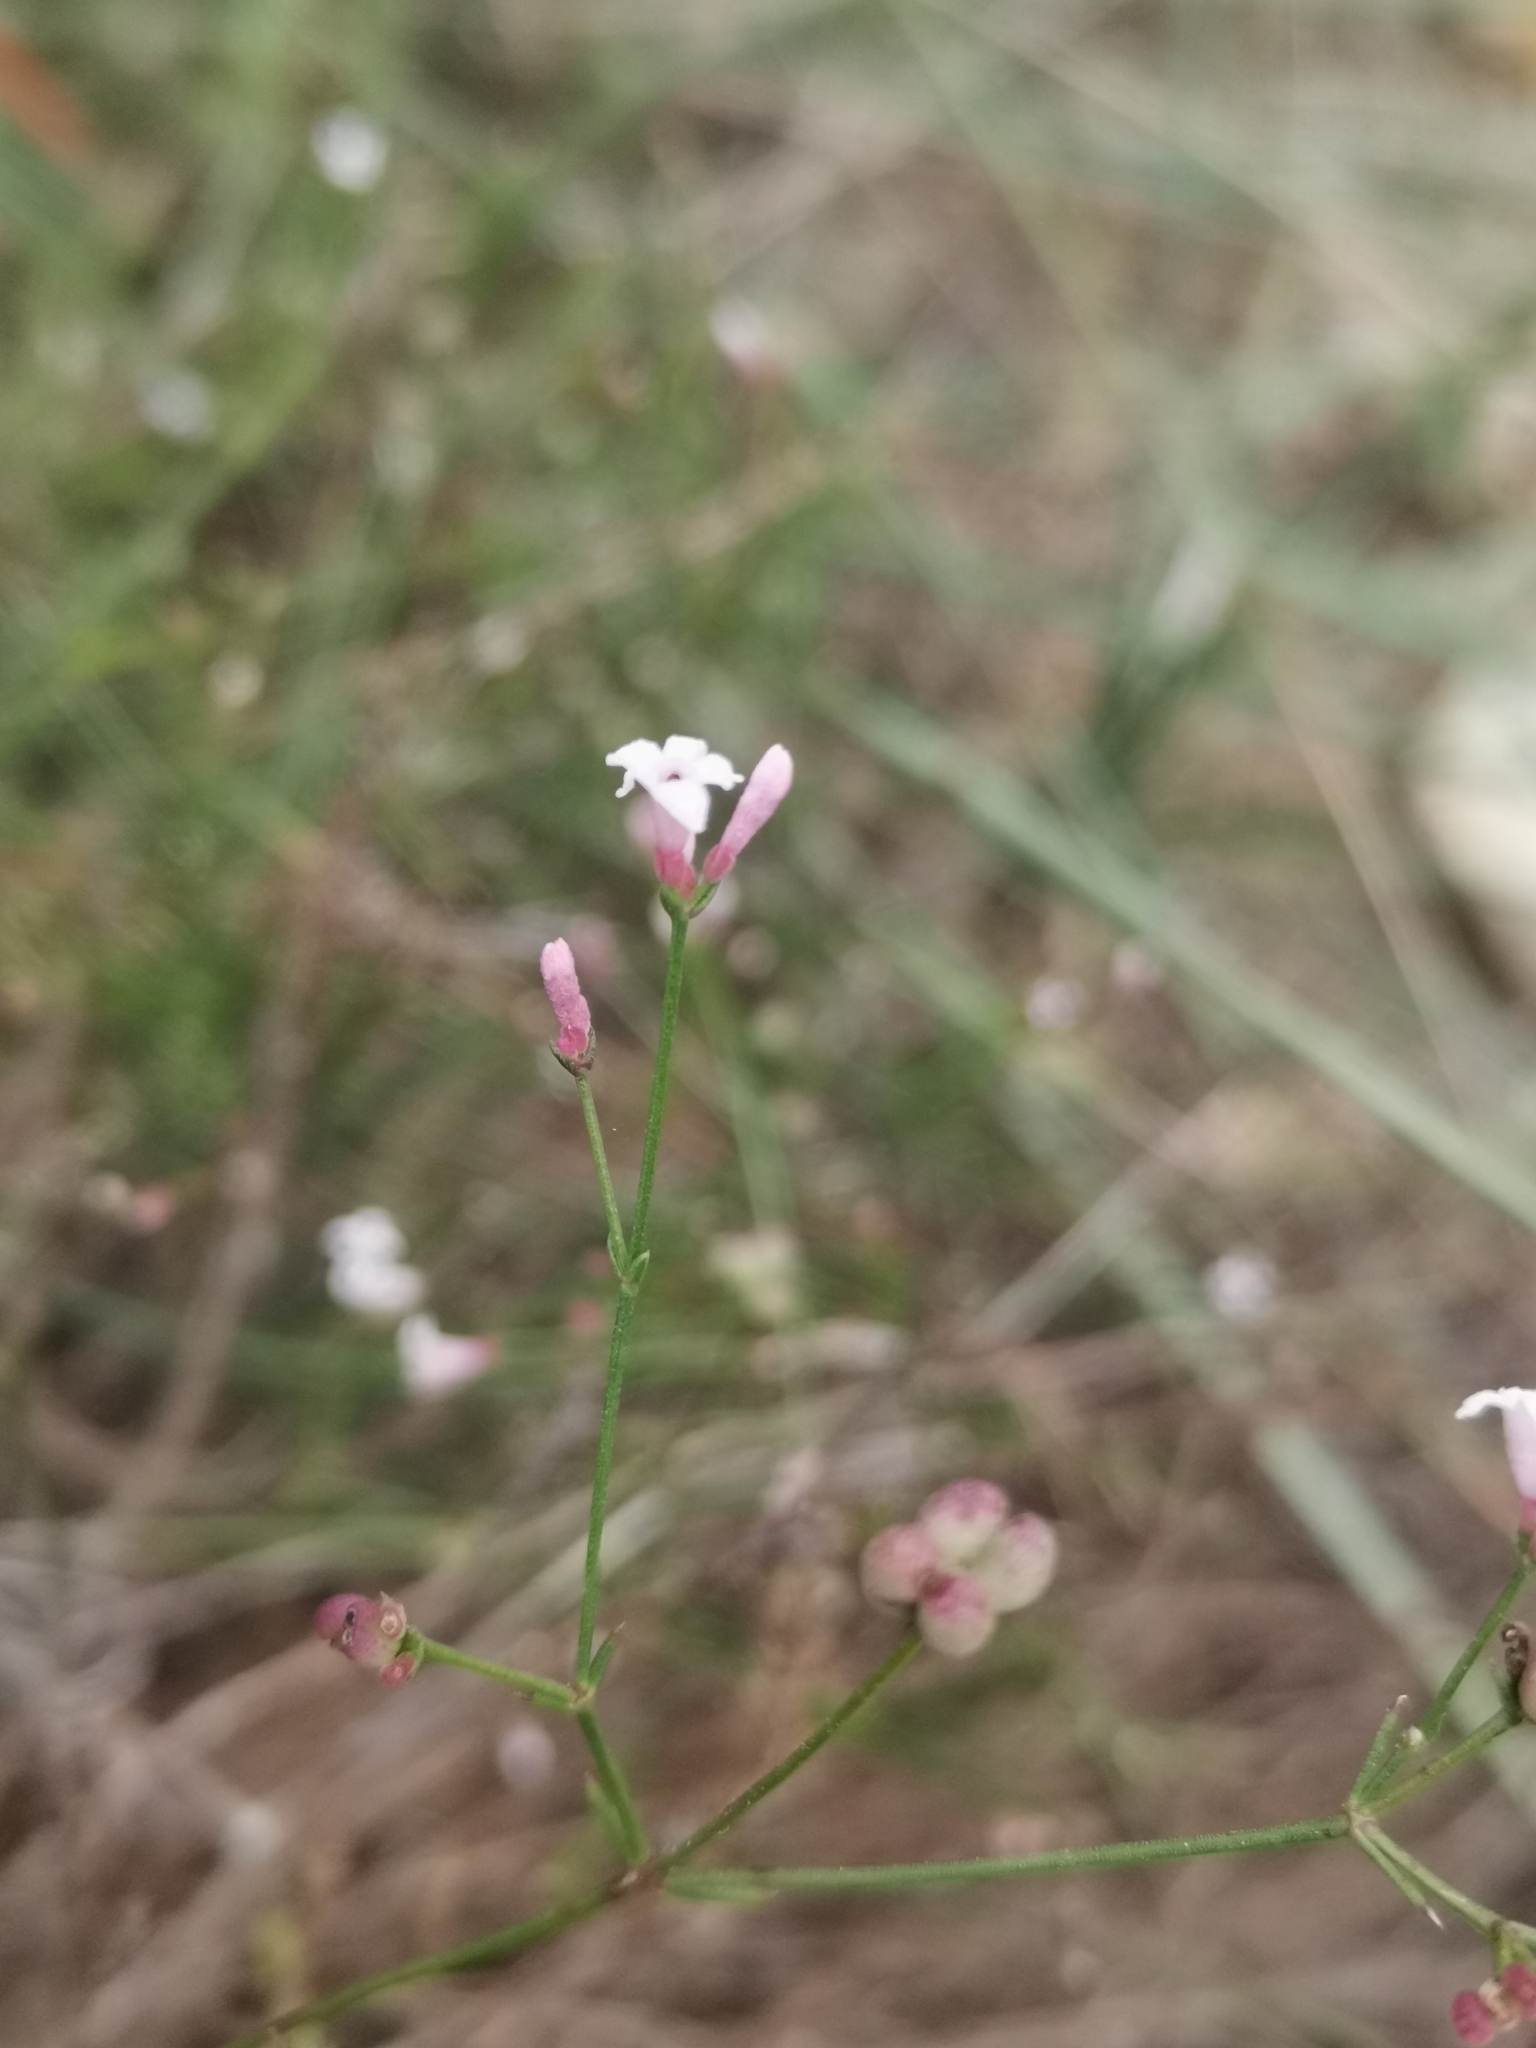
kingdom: Plantae
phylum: Tracheophyta
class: Magnoliopsida
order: Gentianales
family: Rubiaceae
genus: Cynanchica
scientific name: Cynanchica pyrenaica
